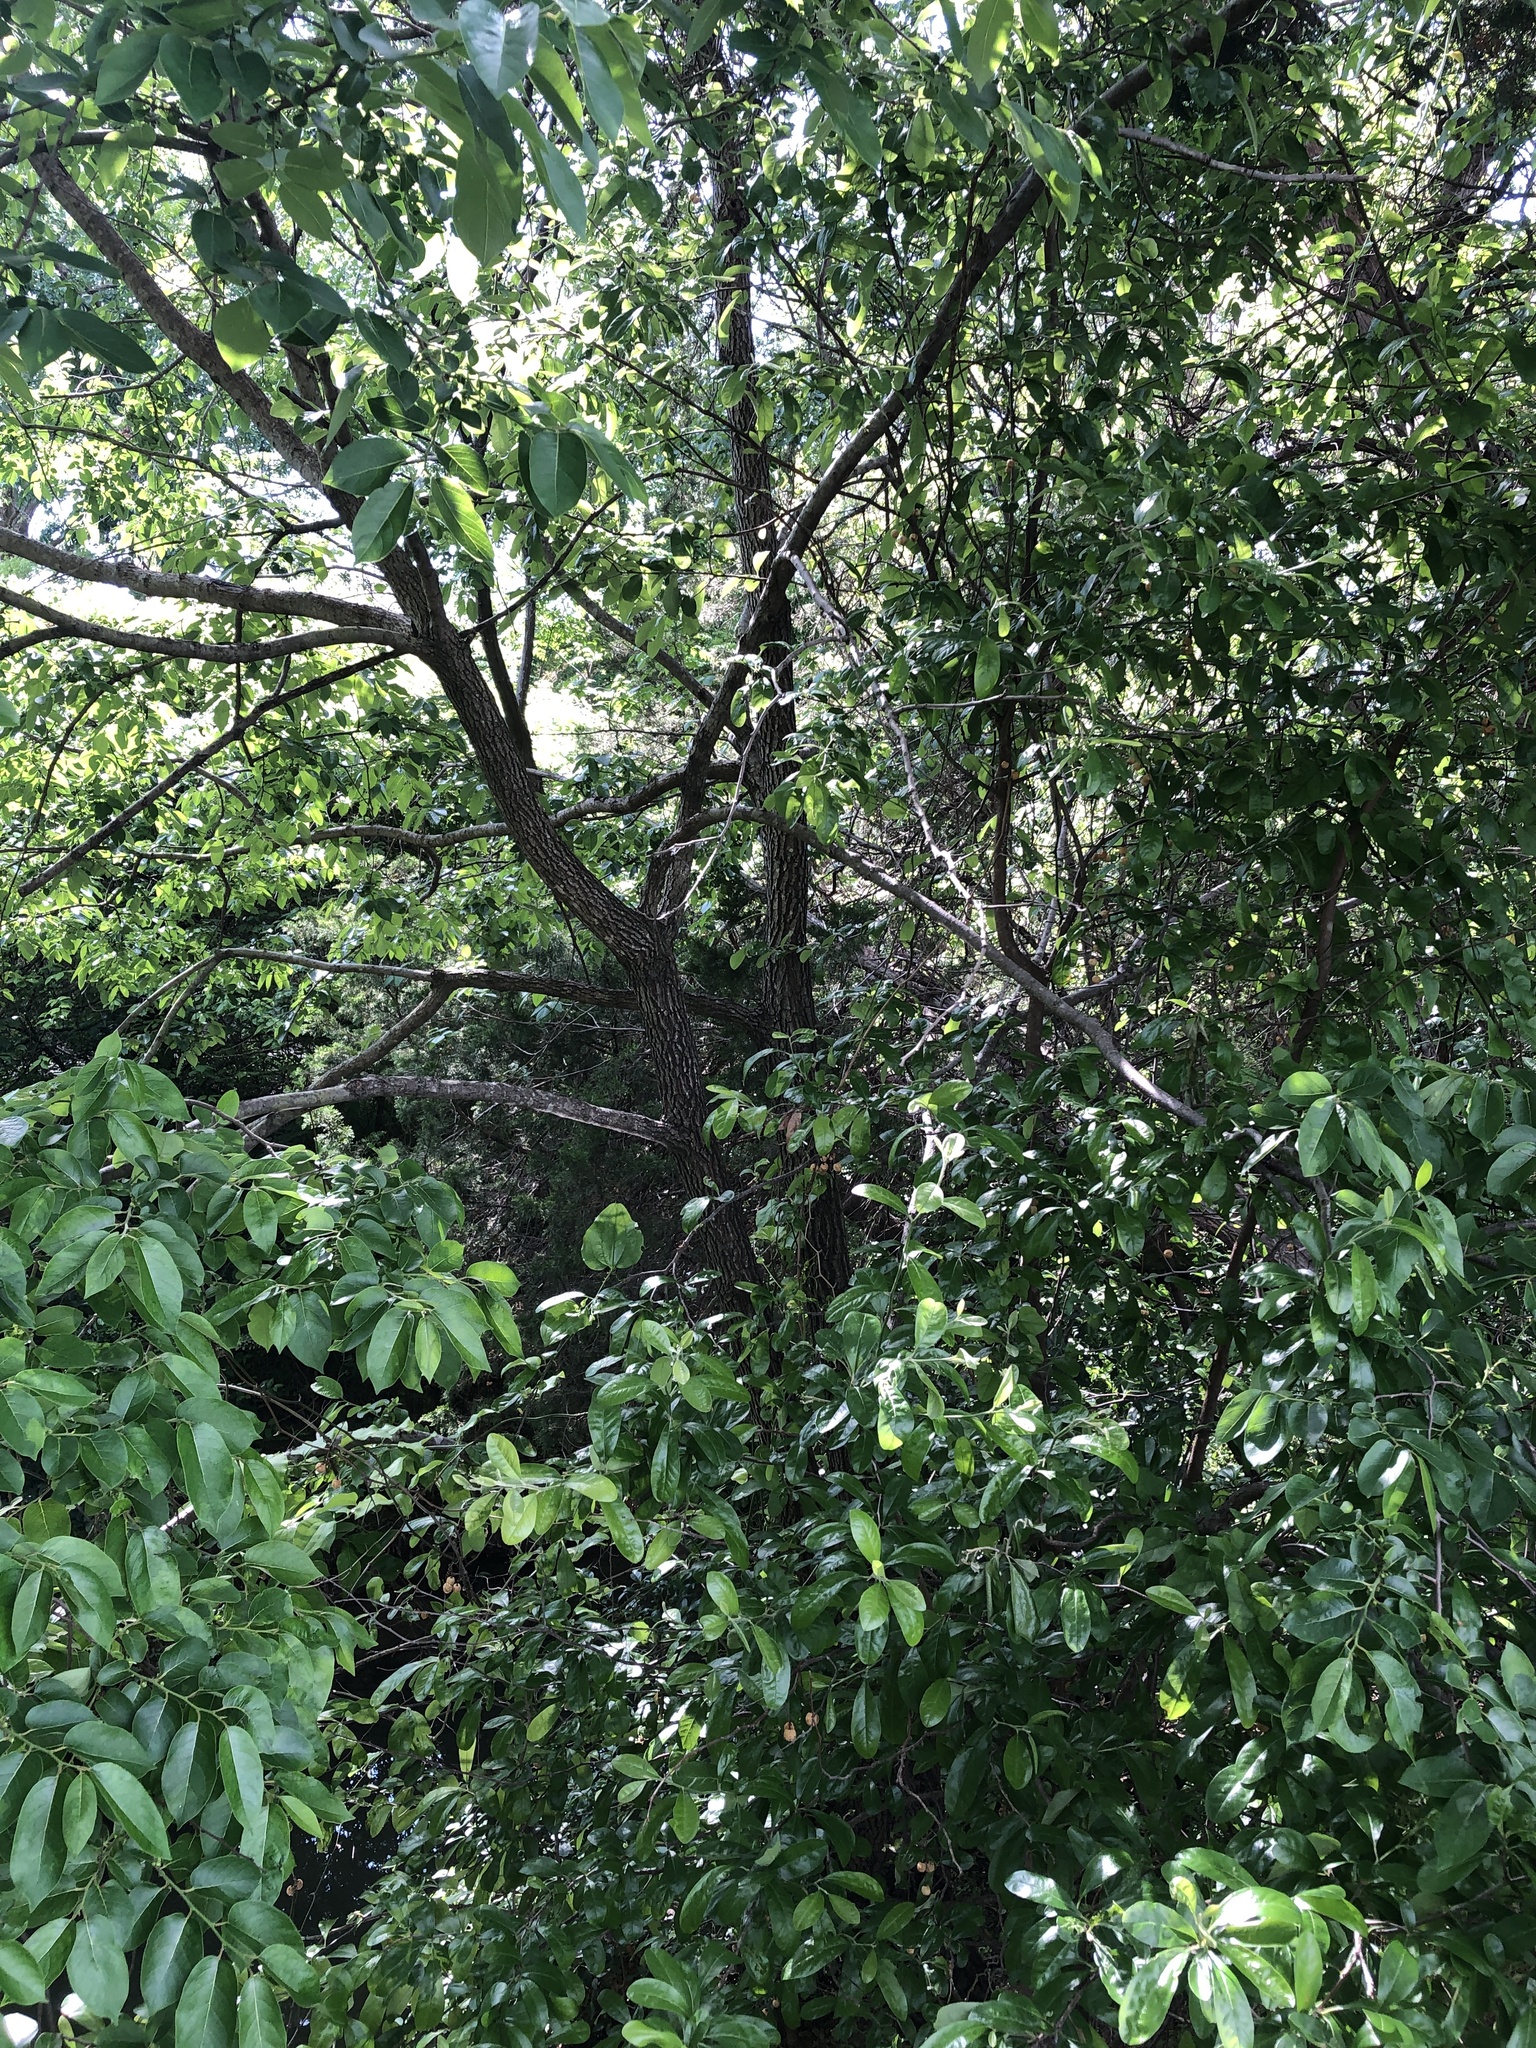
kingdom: Plantae
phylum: Tracheophyta
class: Magnoliopsida
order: Ericales
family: Ebenaceae
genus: Diospyros
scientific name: Diospyros virginiana
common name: Persimmon
